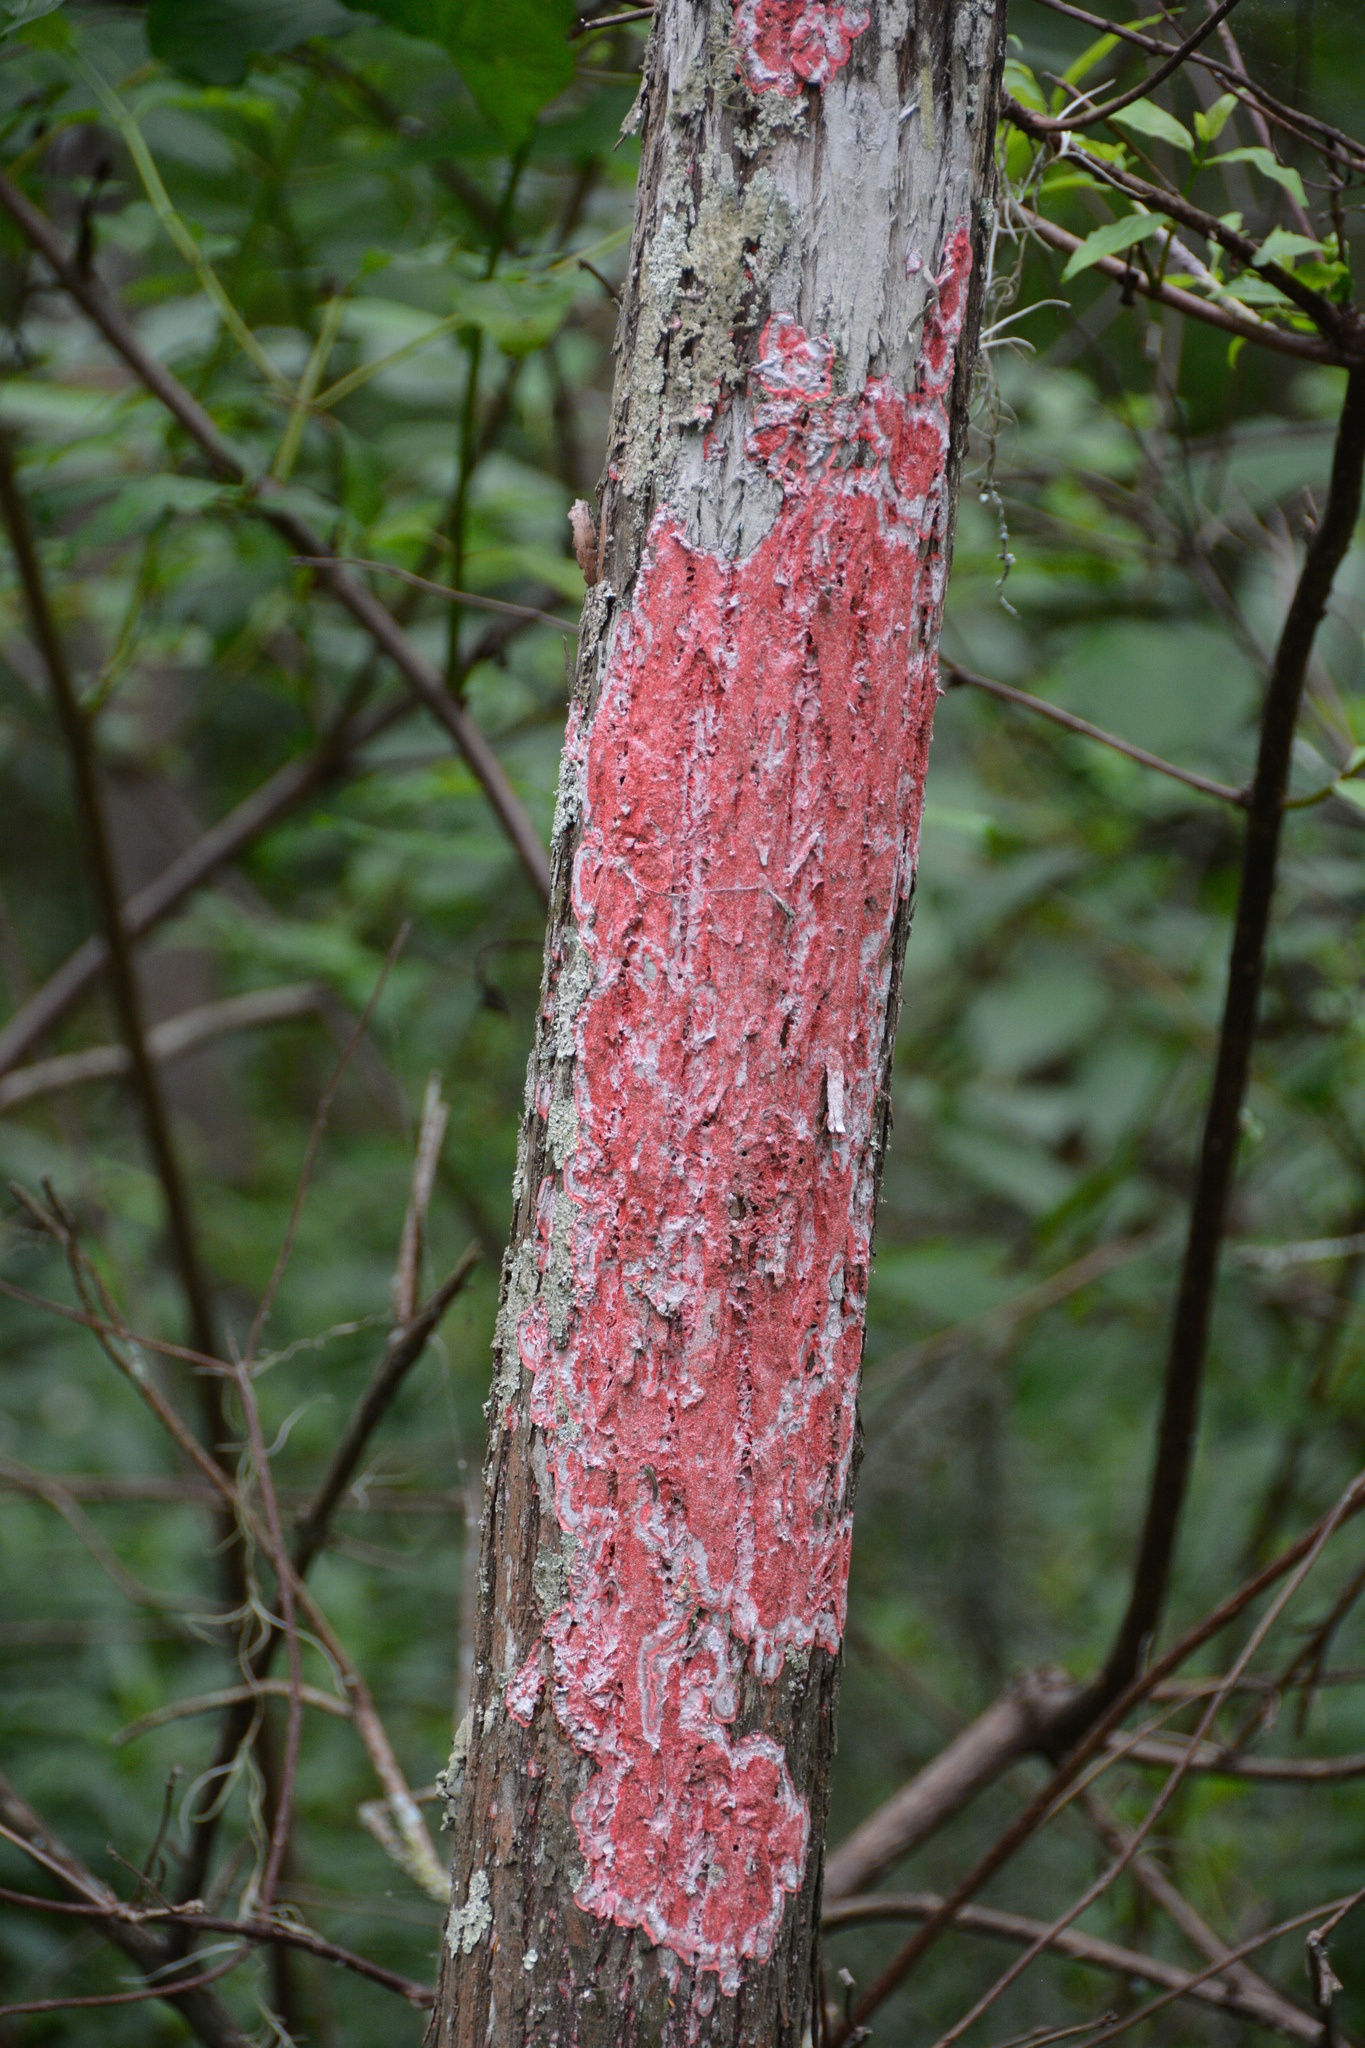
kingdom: Fungi
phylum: Ascomycota
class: Arthoniomycetes
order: Arthoniales
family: Arthoniaceae
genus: Herpothallon
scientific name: Herpothallon rubrocinctum
